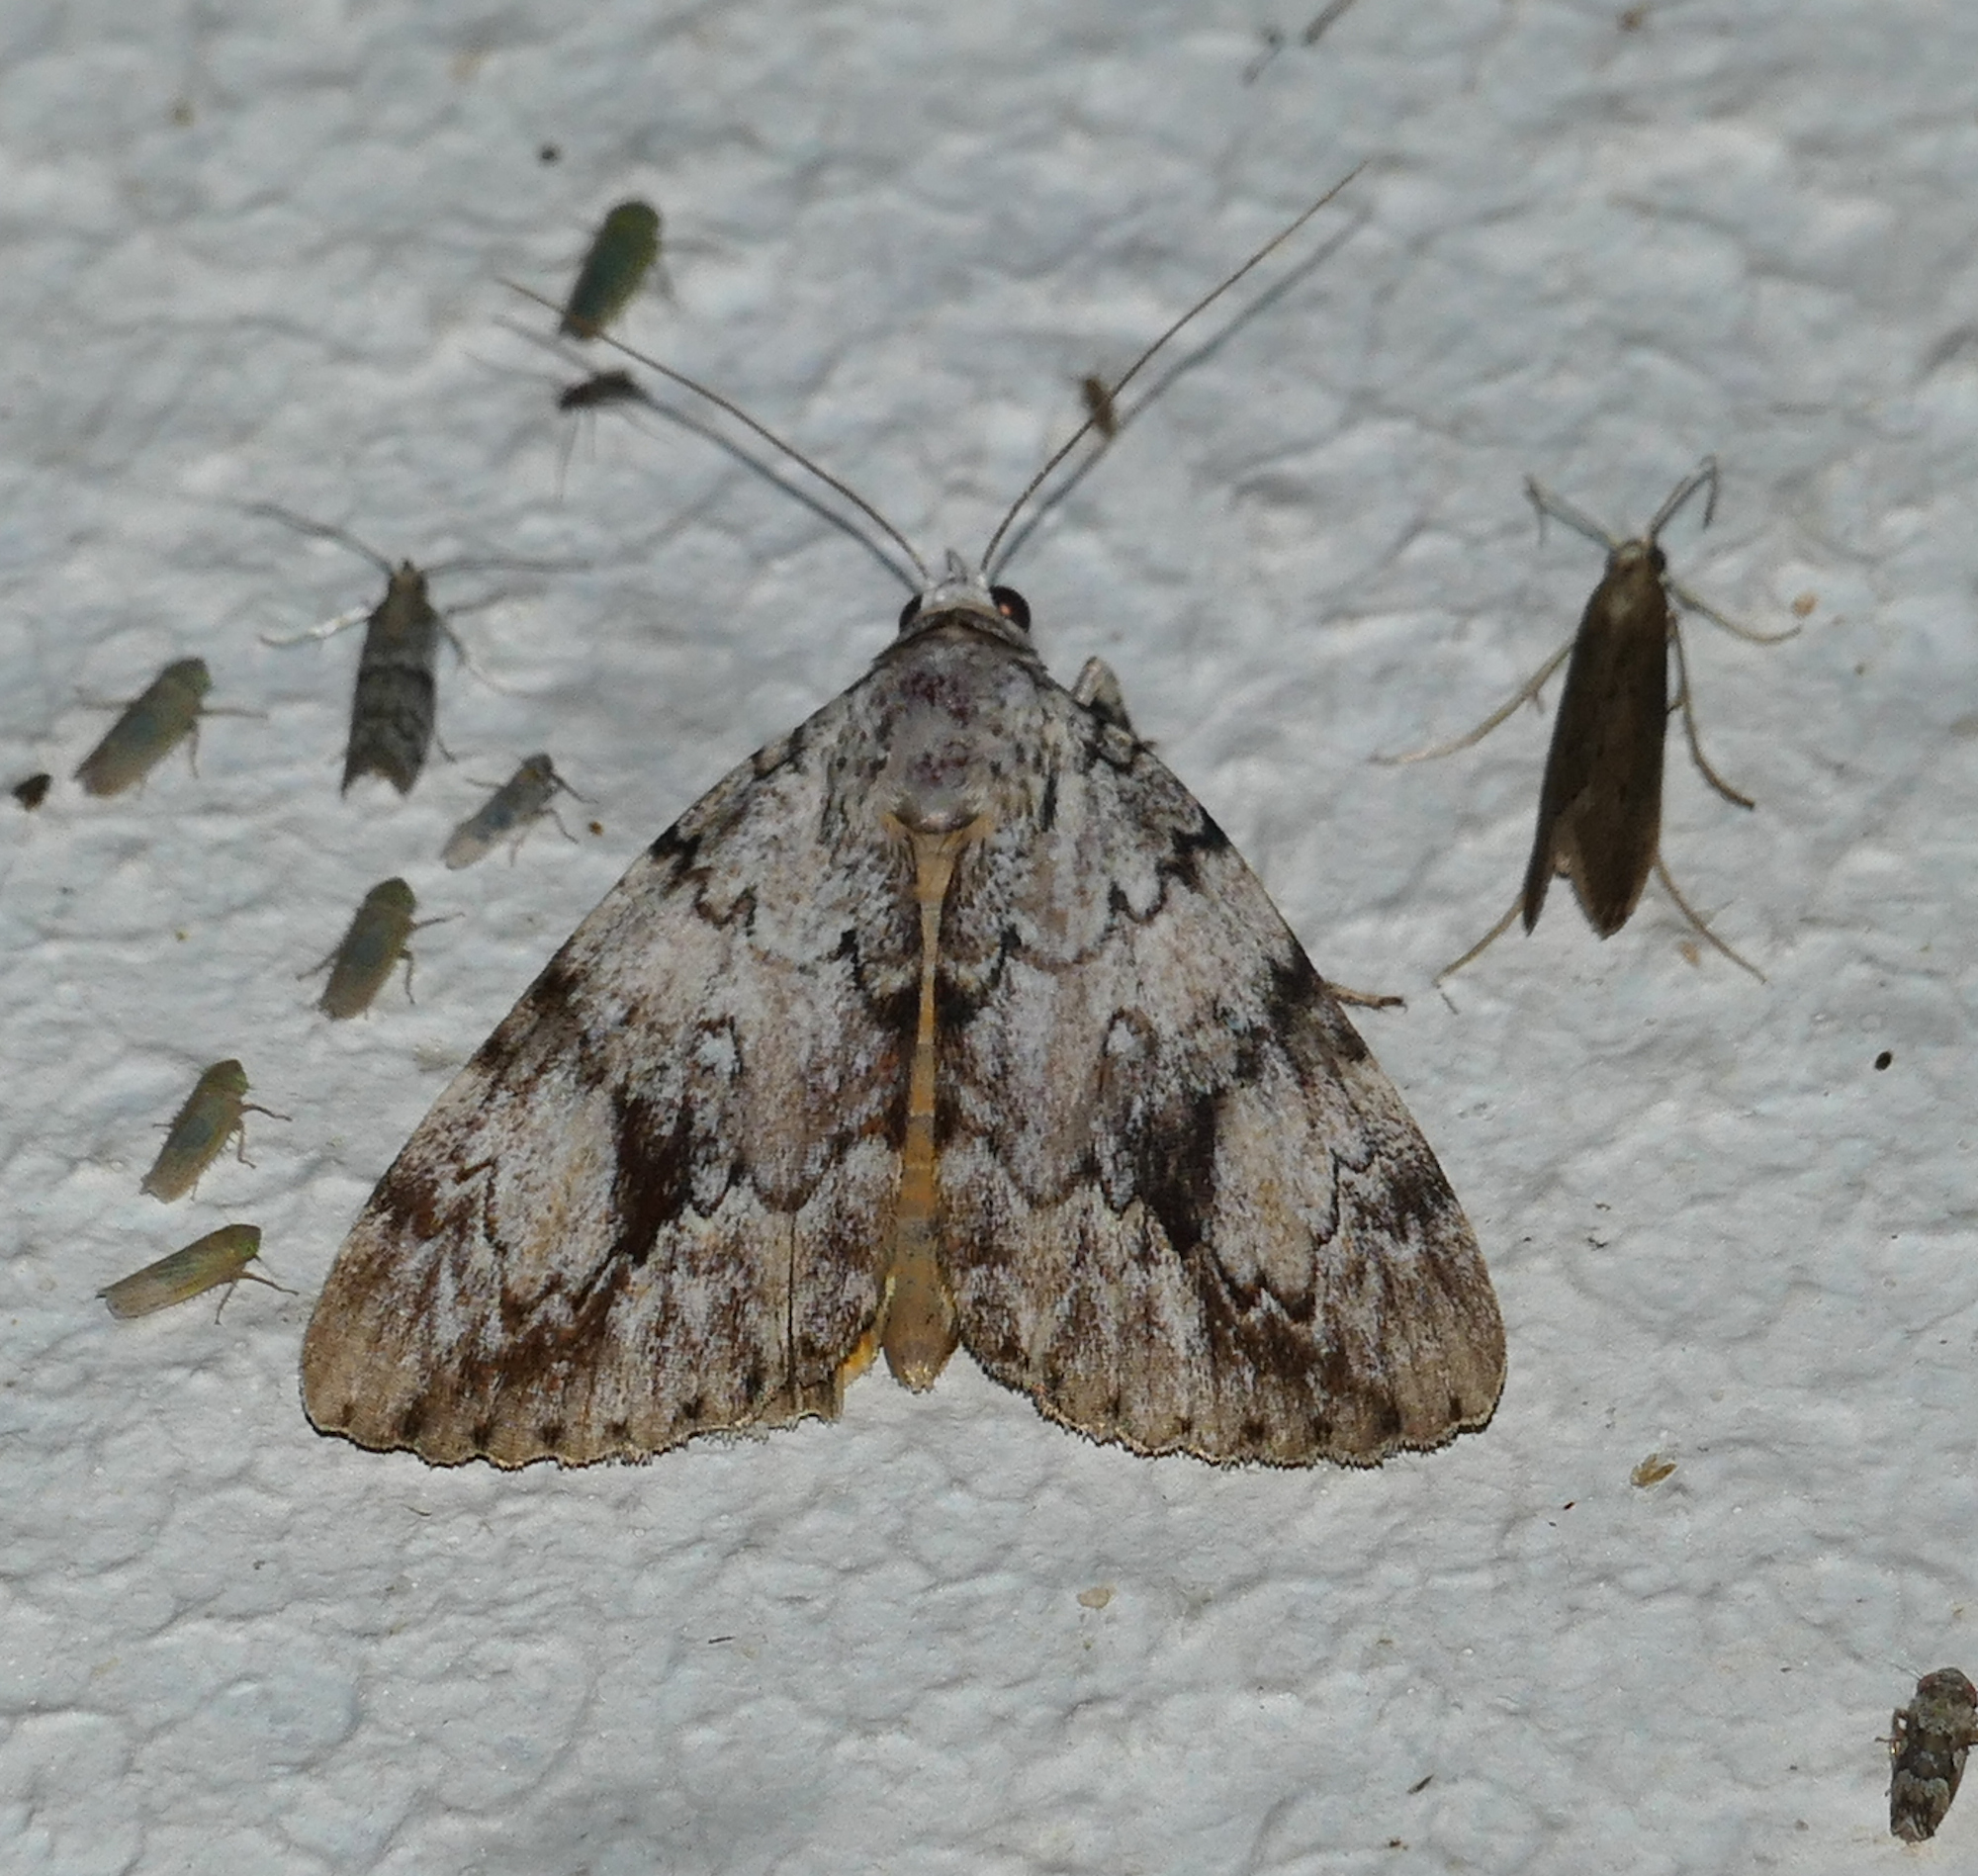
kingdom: Animalia
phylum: Arthropoda
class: Insecta
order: Lepidoptera
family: Erebidae
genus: Catocala
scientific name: Catocala amica
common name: Girlfriend underwing
